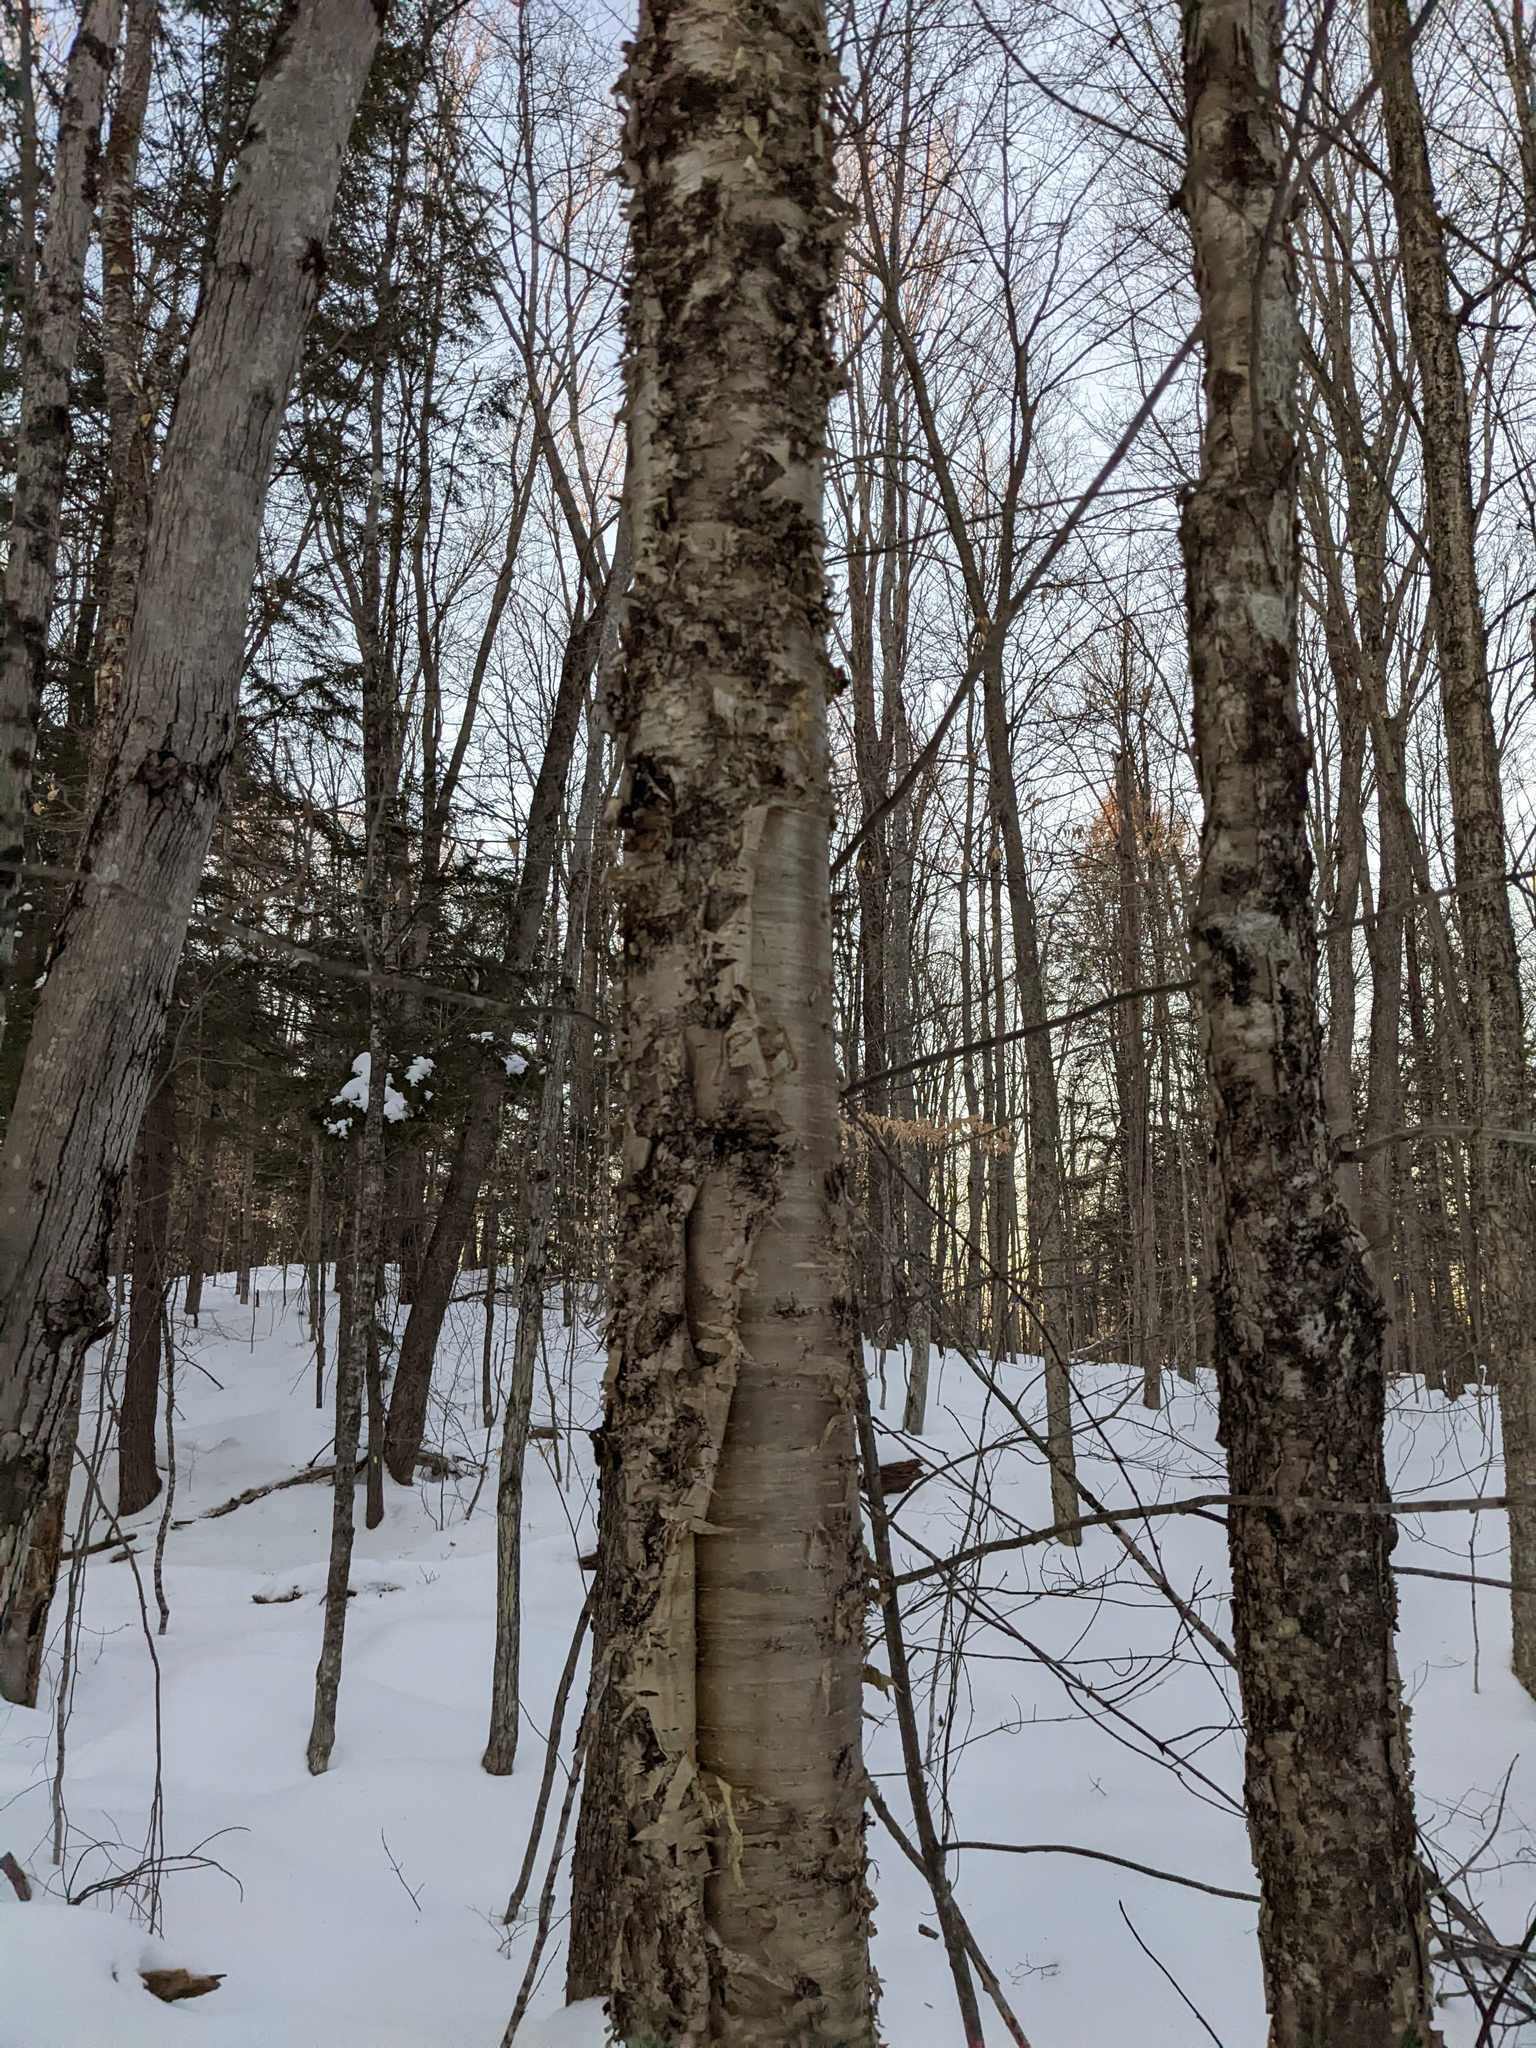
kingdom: Plantae
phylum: Tracheophyta
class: Magnoliopsida
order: Fagales
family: Betulaceae
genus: Betula
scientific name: Betula alleghaniensis
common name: Yellow birch
